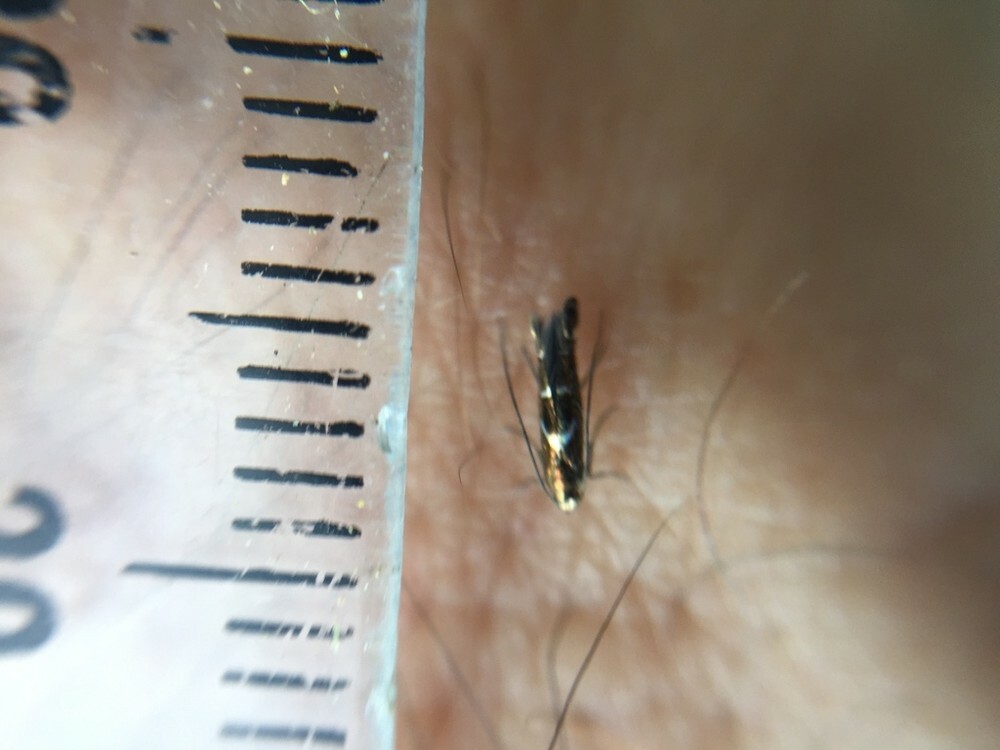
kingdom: Animalia
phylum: Arthropoda
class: Insecta
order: Lepidoptera
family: Gracillariidae
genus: Polysoma
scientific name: Polysoma eumetalla
